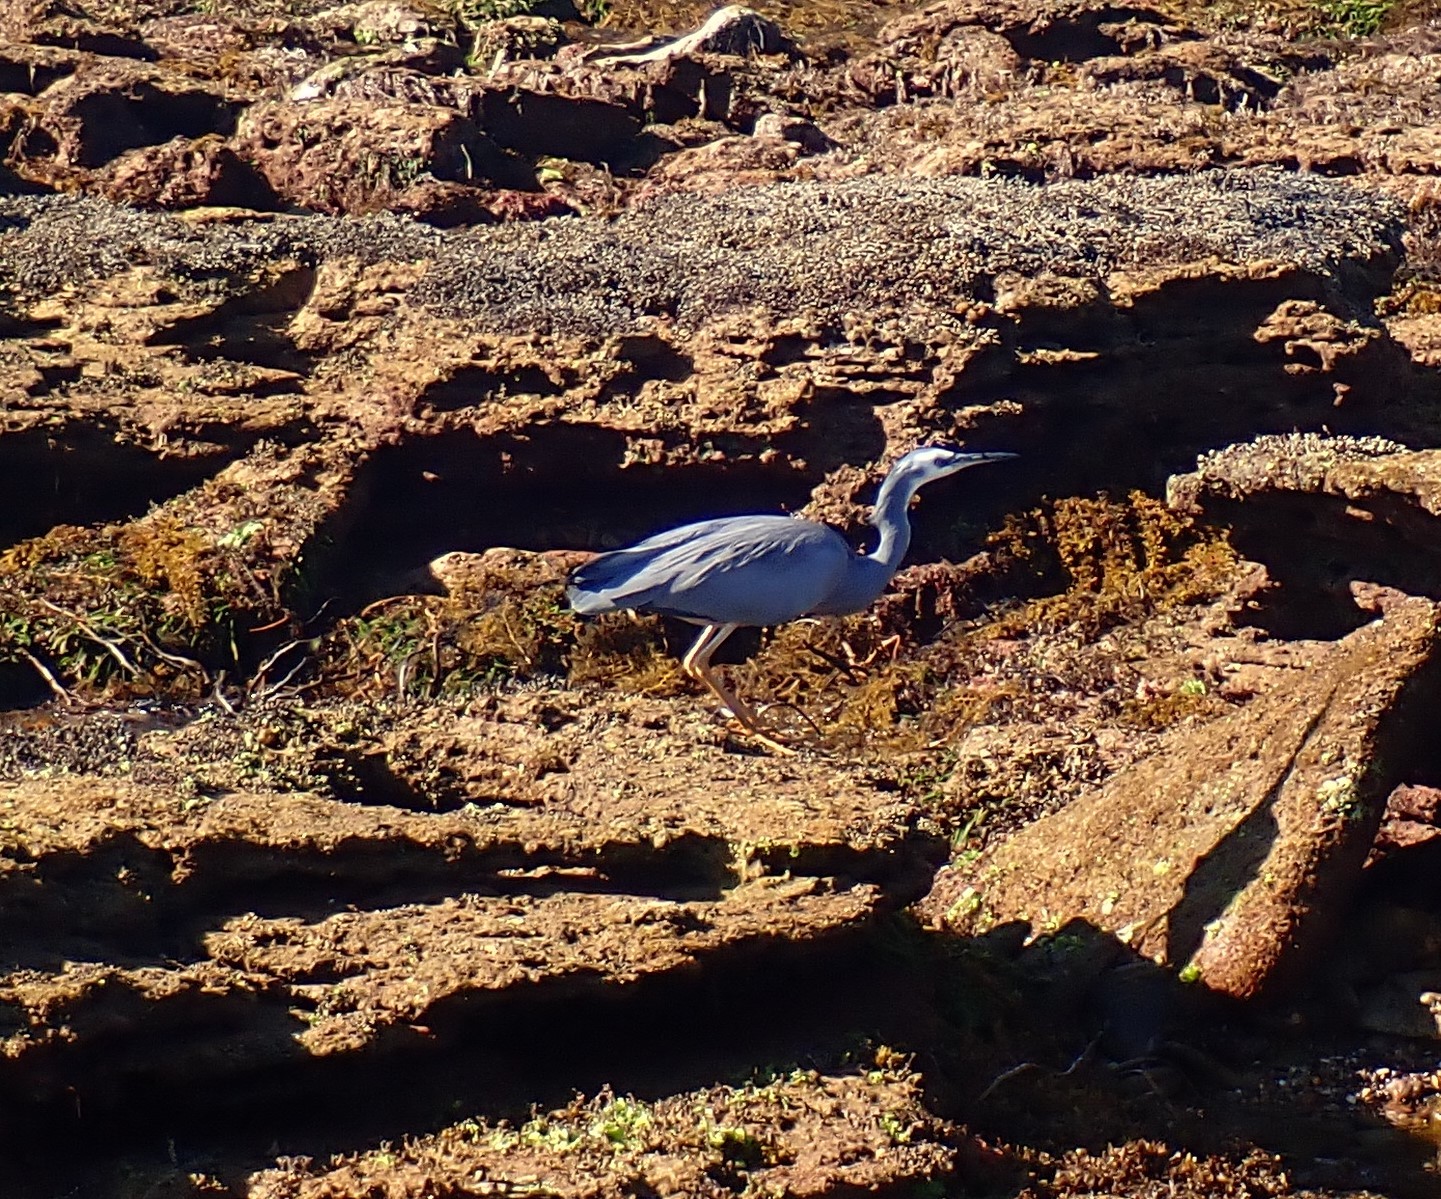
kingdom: Animalia
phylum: Chordata
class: Aves
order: Pelecaniformes
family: Ardeidae
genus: Egretta
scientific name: Egretta novaehollandiae
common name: White-faced heron
